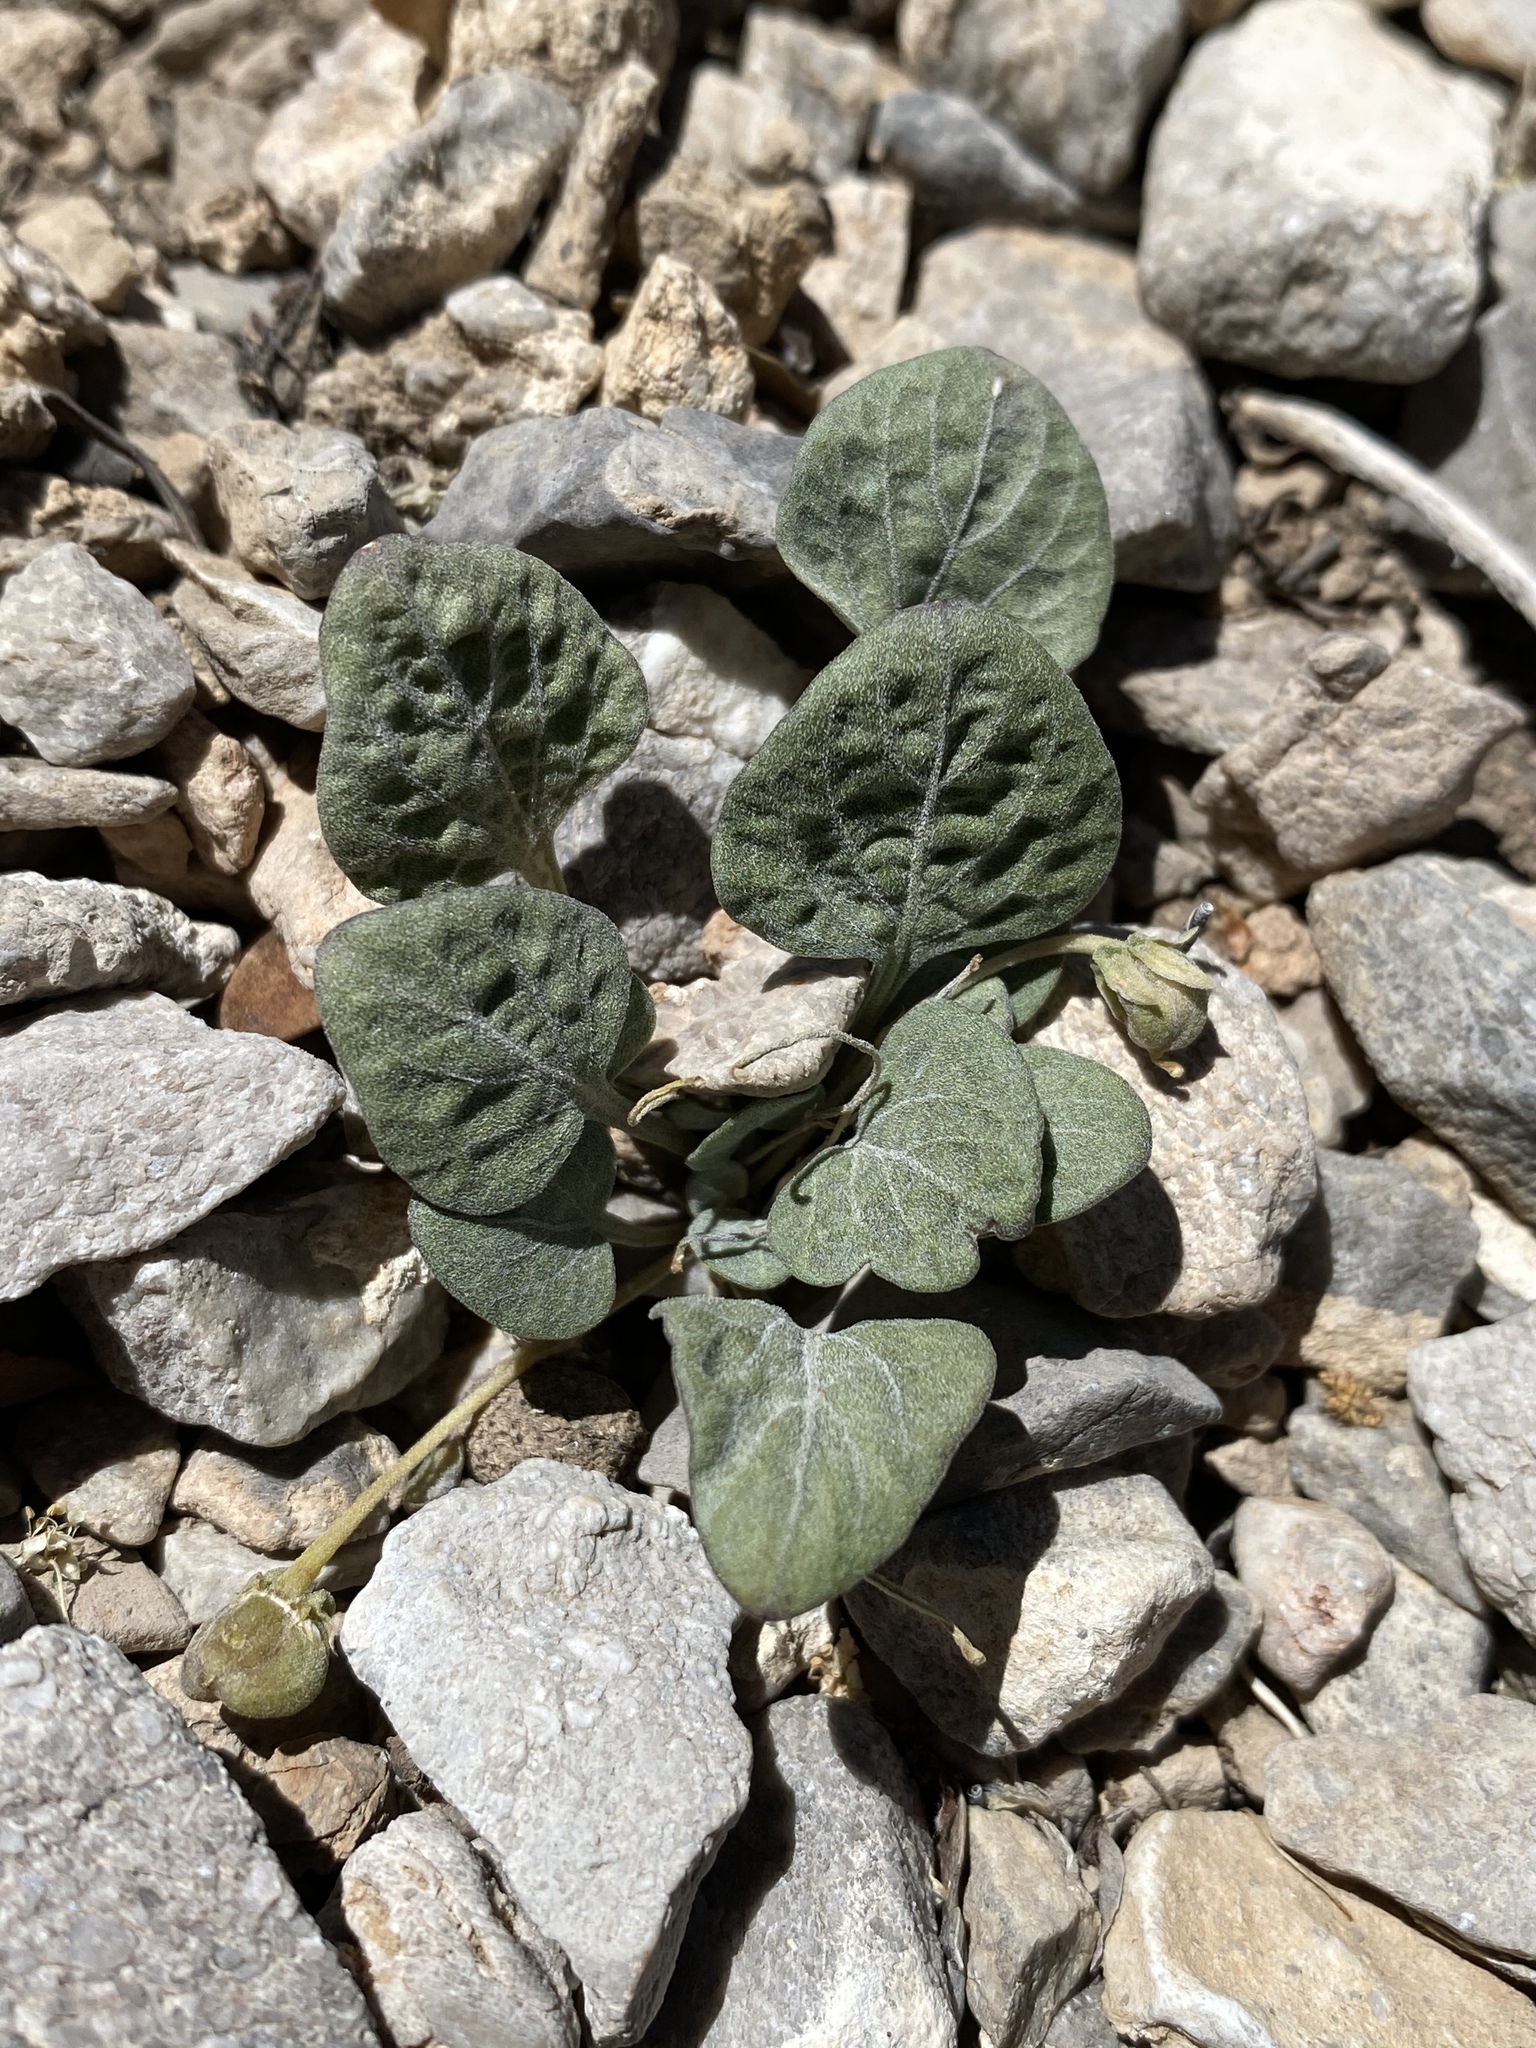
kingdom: Plantae
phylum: Tracheophyta
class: Magnoliopsida
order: Malpighiales
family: Violaceae
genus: Viola
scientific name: Viola charlestonensis
